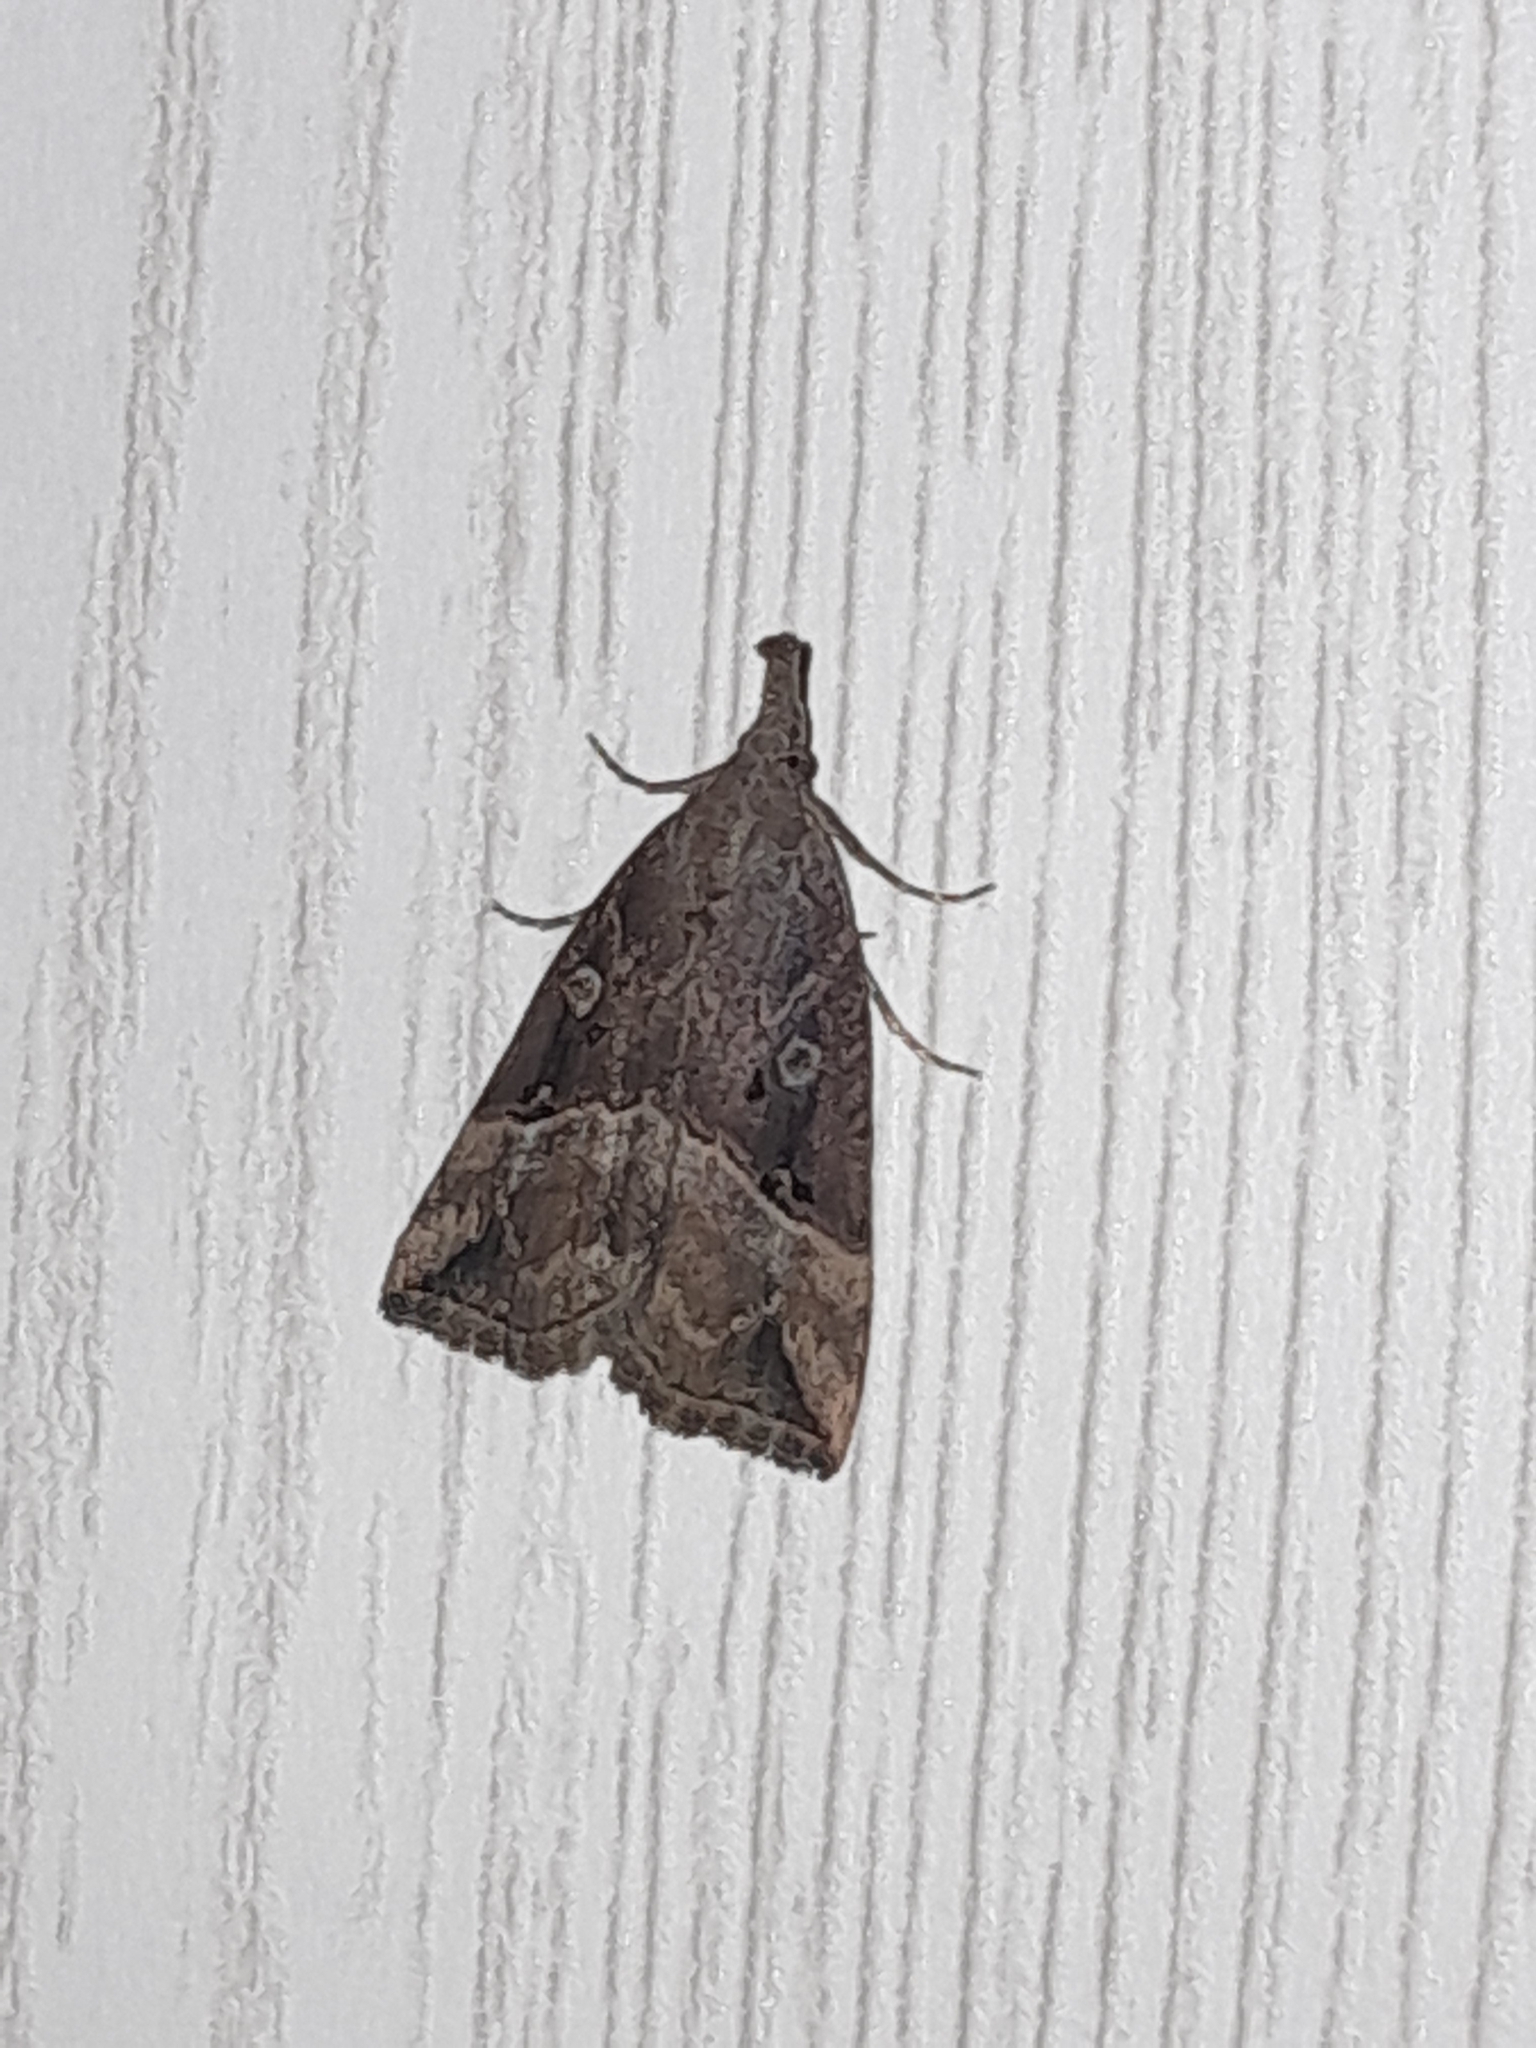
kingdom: Animalia
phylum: Arthropoda
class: Insecta
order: Lepidoptera
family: Erebidae
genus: Hypena
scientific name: Hypena rostralis
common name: Buttoned snout
